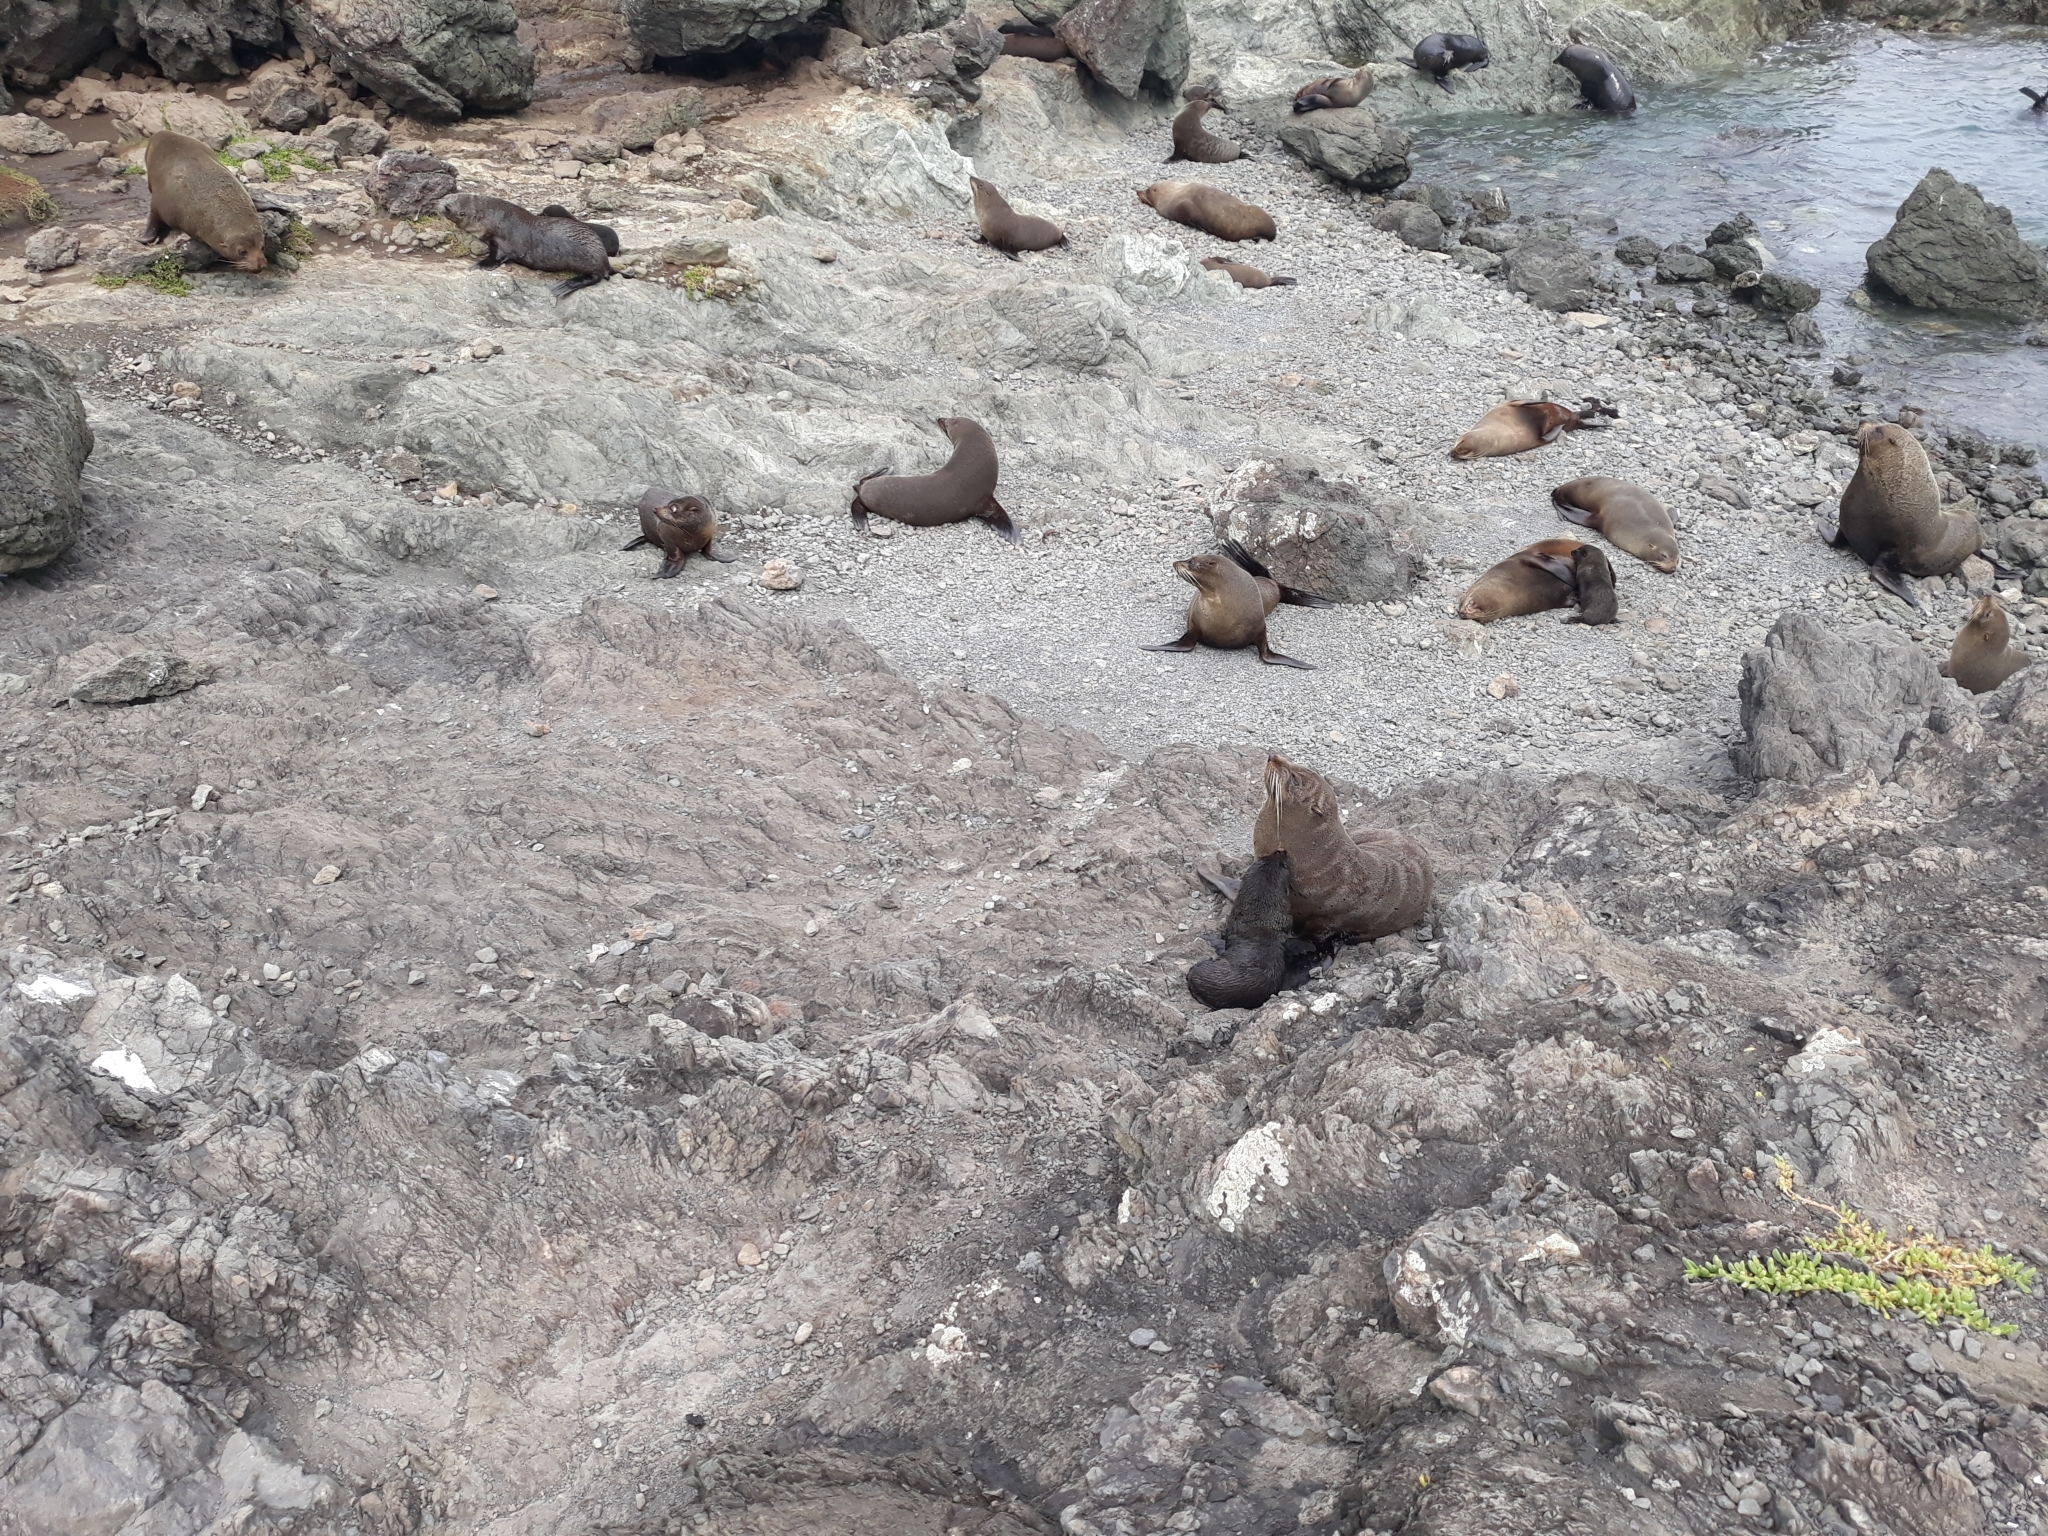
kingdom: Animalia
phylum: Chordata
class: Mammalia
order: Carnivora
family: Otariidae
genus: Arctocephalus
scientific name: Arctocephalus forsteri
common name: New zealand fur seal
